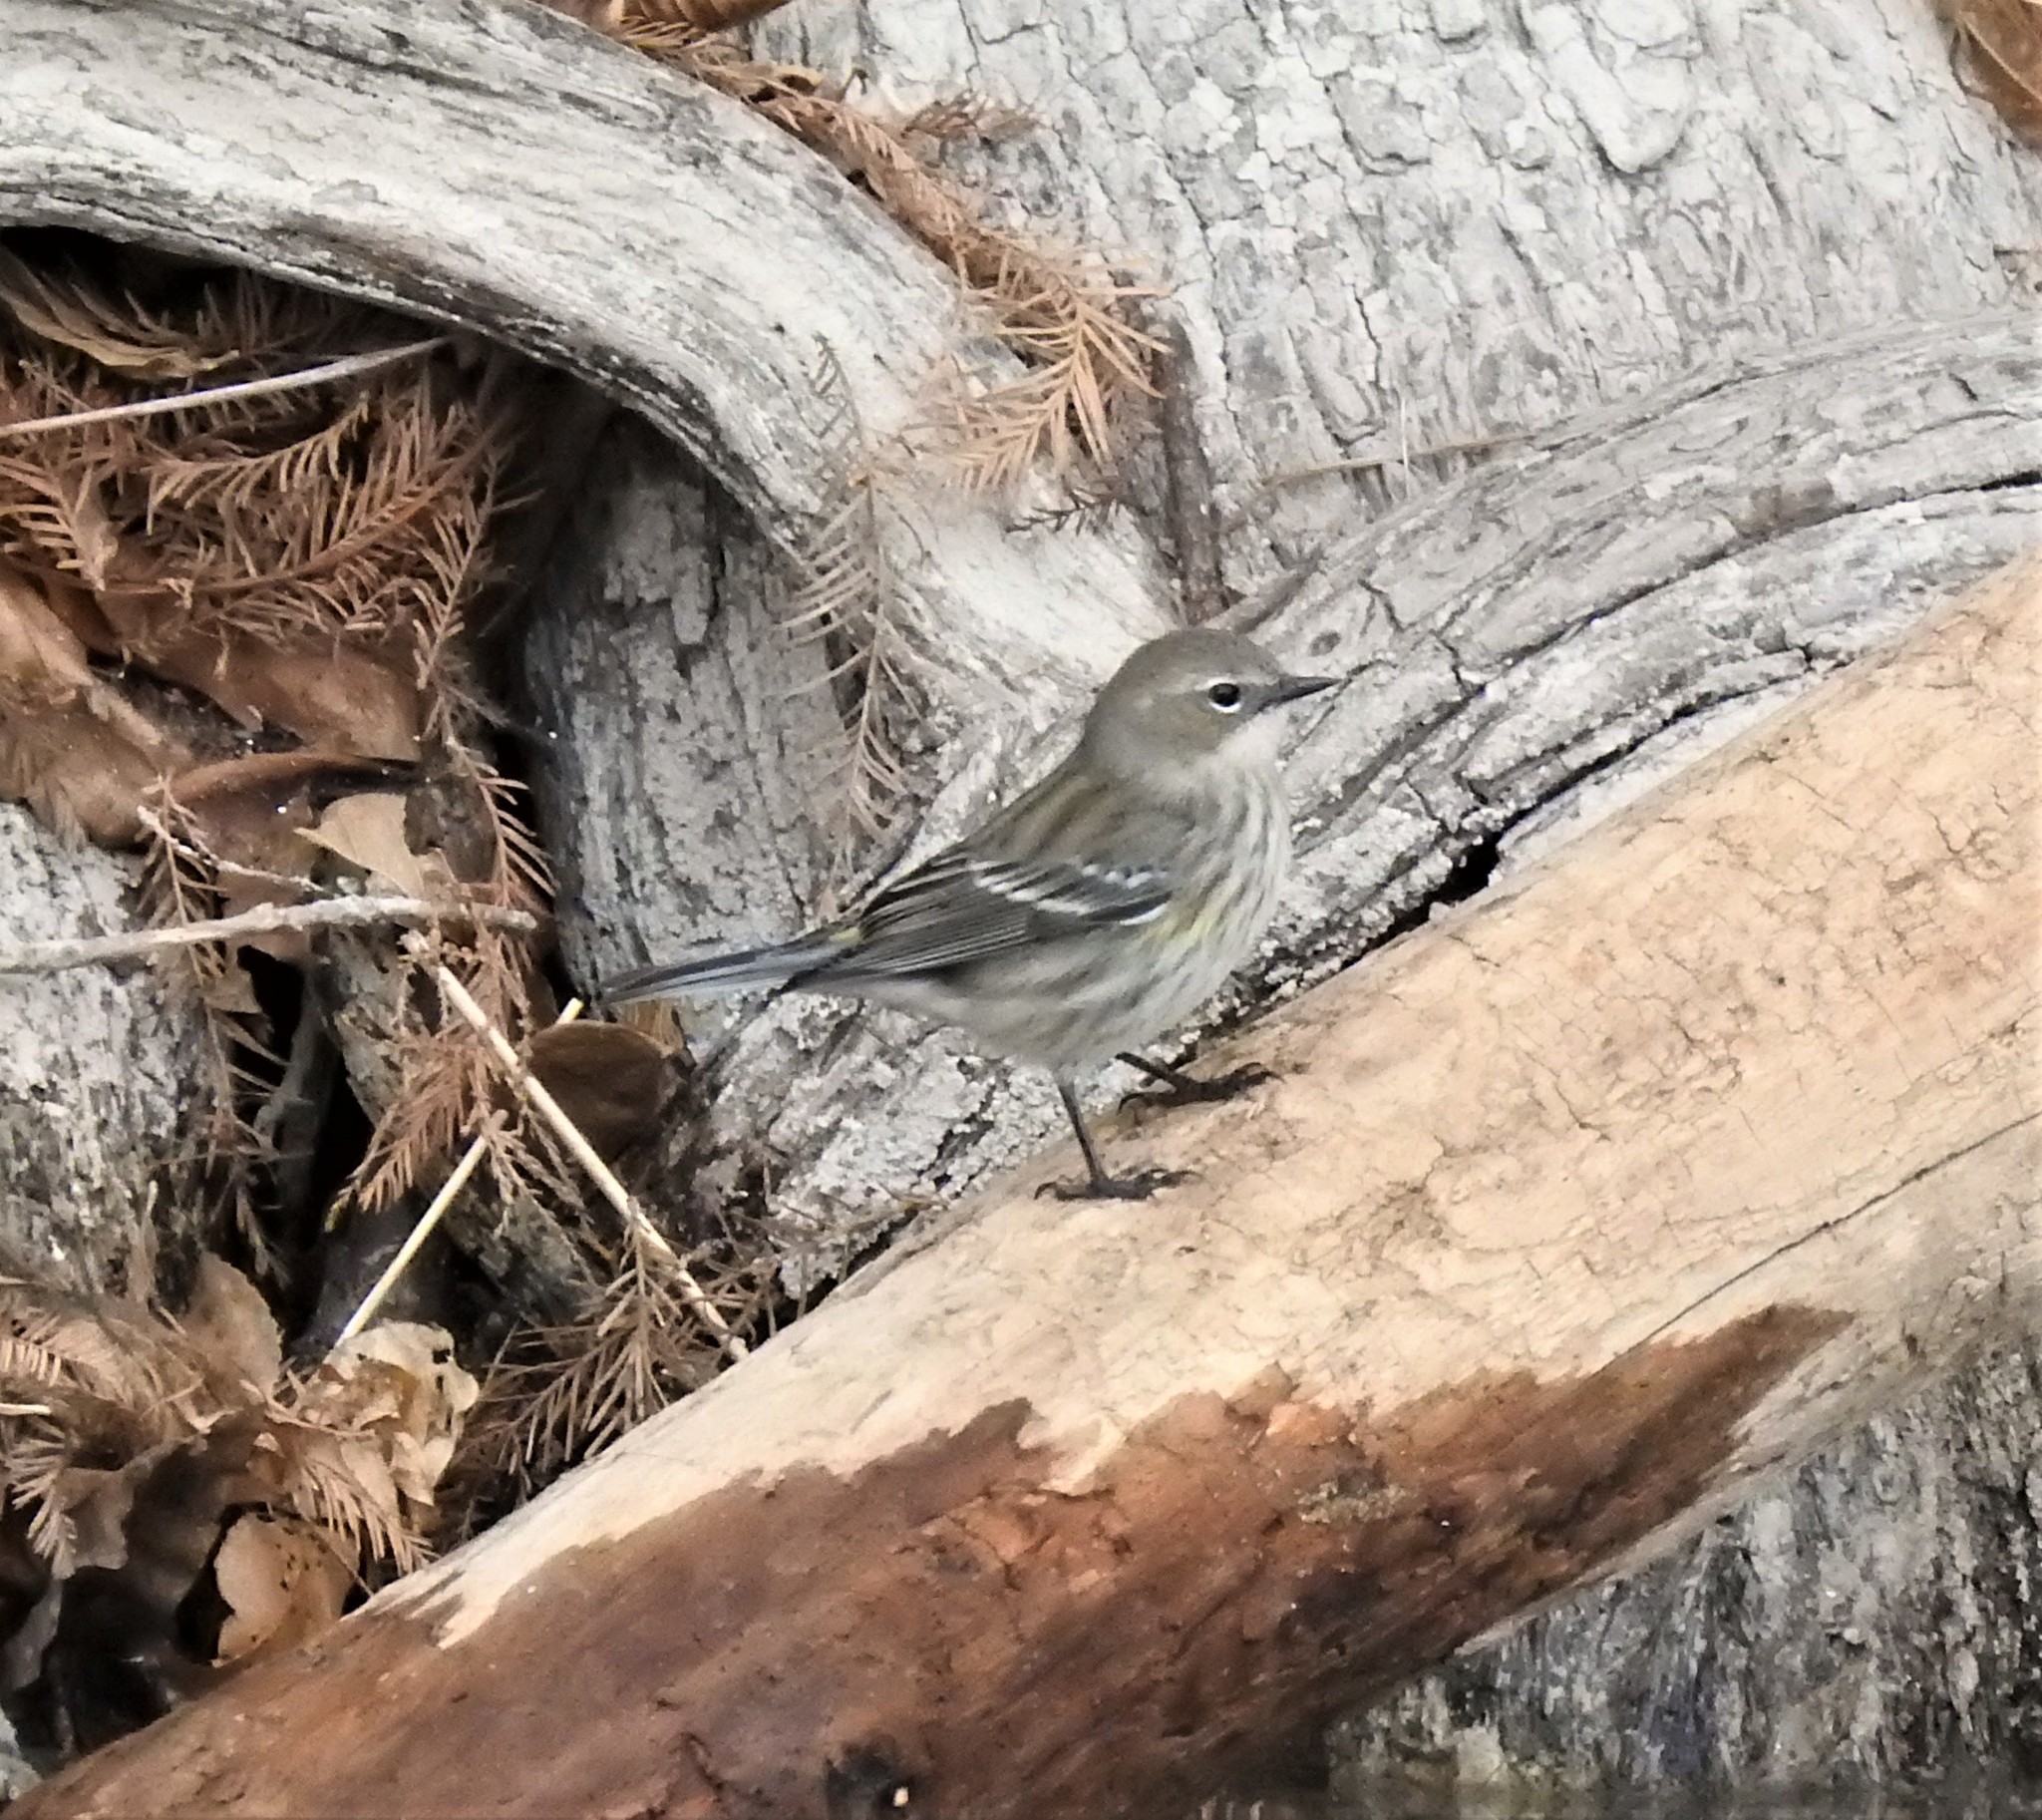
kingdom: Animalia
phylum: Chordata
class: Aves
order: Passeriformes
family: Parulidae
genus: Setophaga
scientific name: Setophaga coronata
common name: Myrtle warbler
